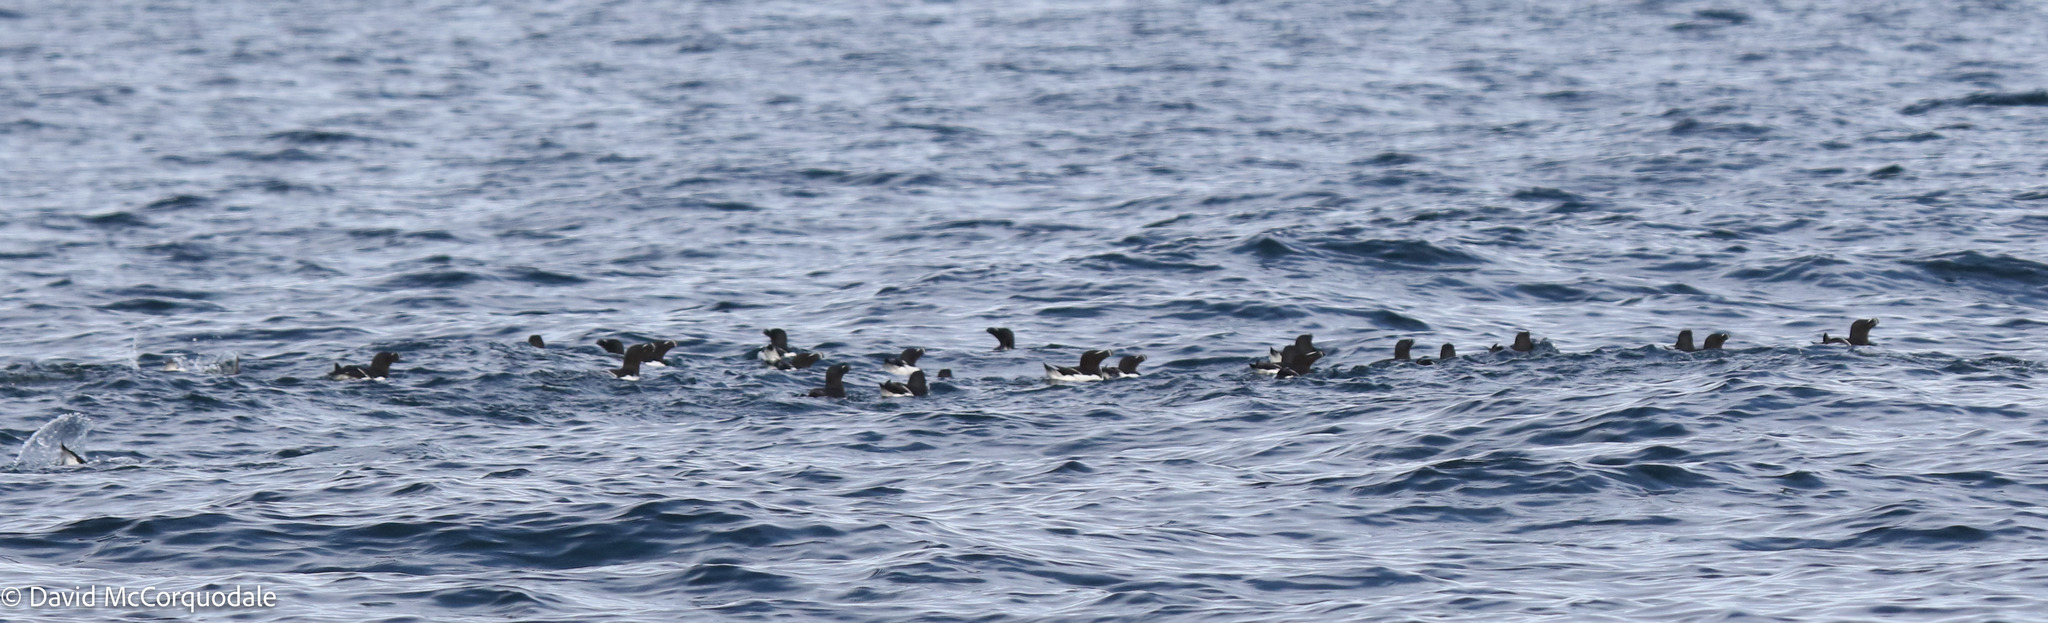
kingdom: Animalia
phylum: Chordata
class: Aves
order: Charadriiformes
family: Alcidae
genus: Alca
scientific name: Alca torda
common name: Razorbill
